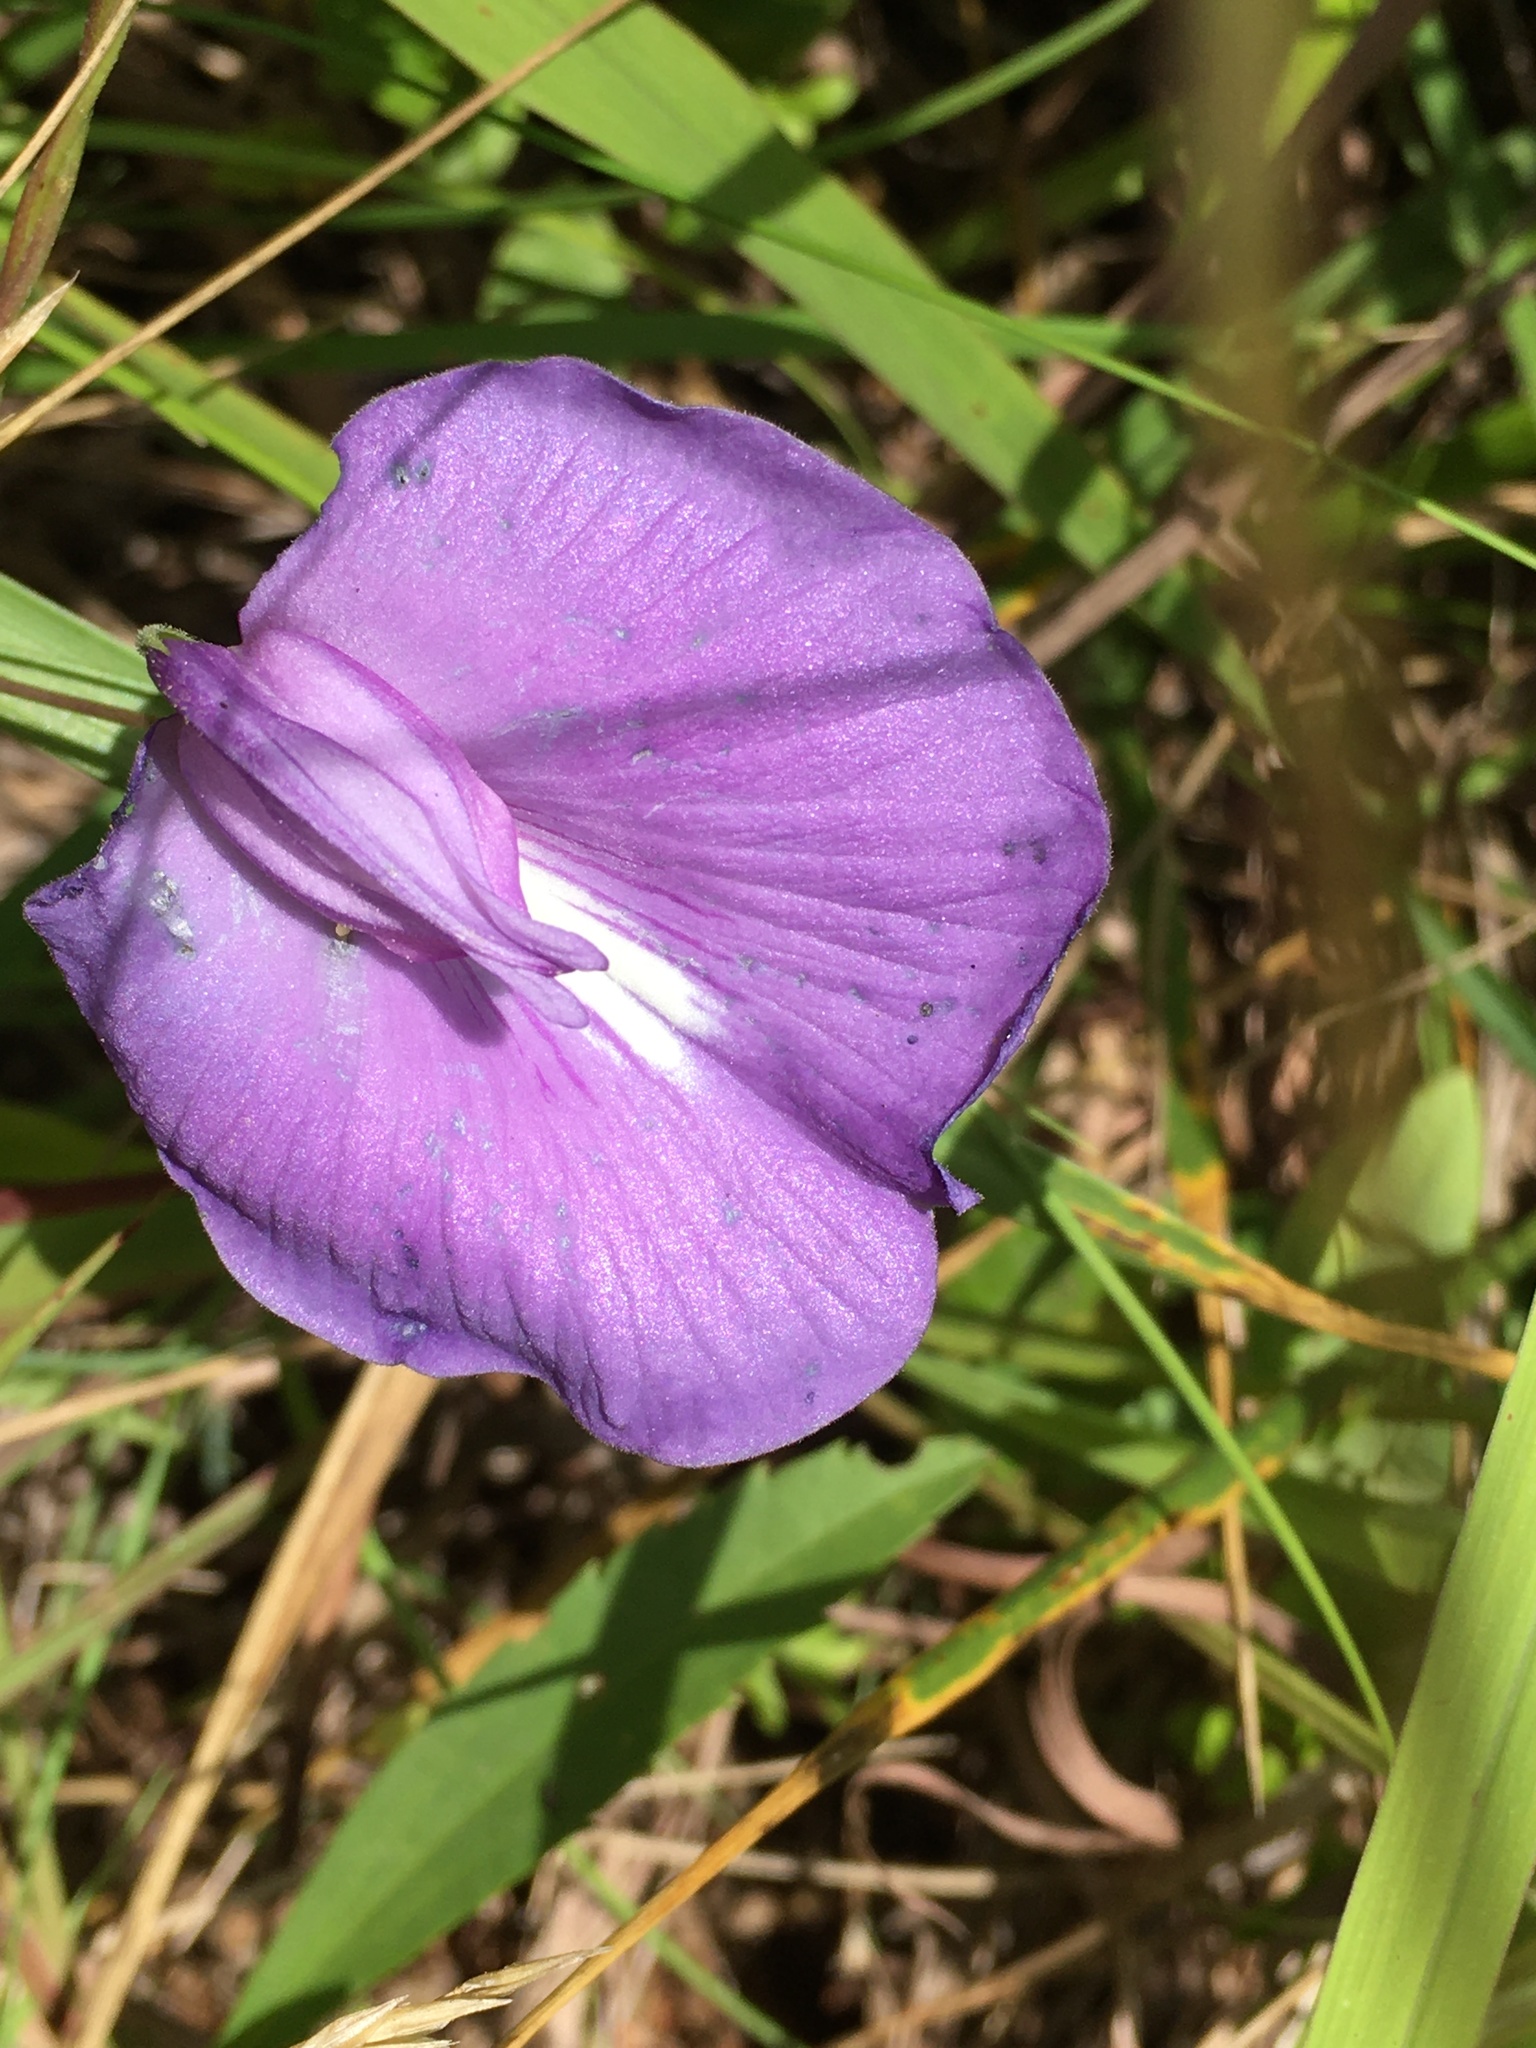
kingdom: Plantae
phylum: Tracheophyta
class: Magnoliopsida
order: Fabales
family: Fabaceae
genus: Centrosema
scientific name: Centrosema virginianum
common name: Butterfly-pea
